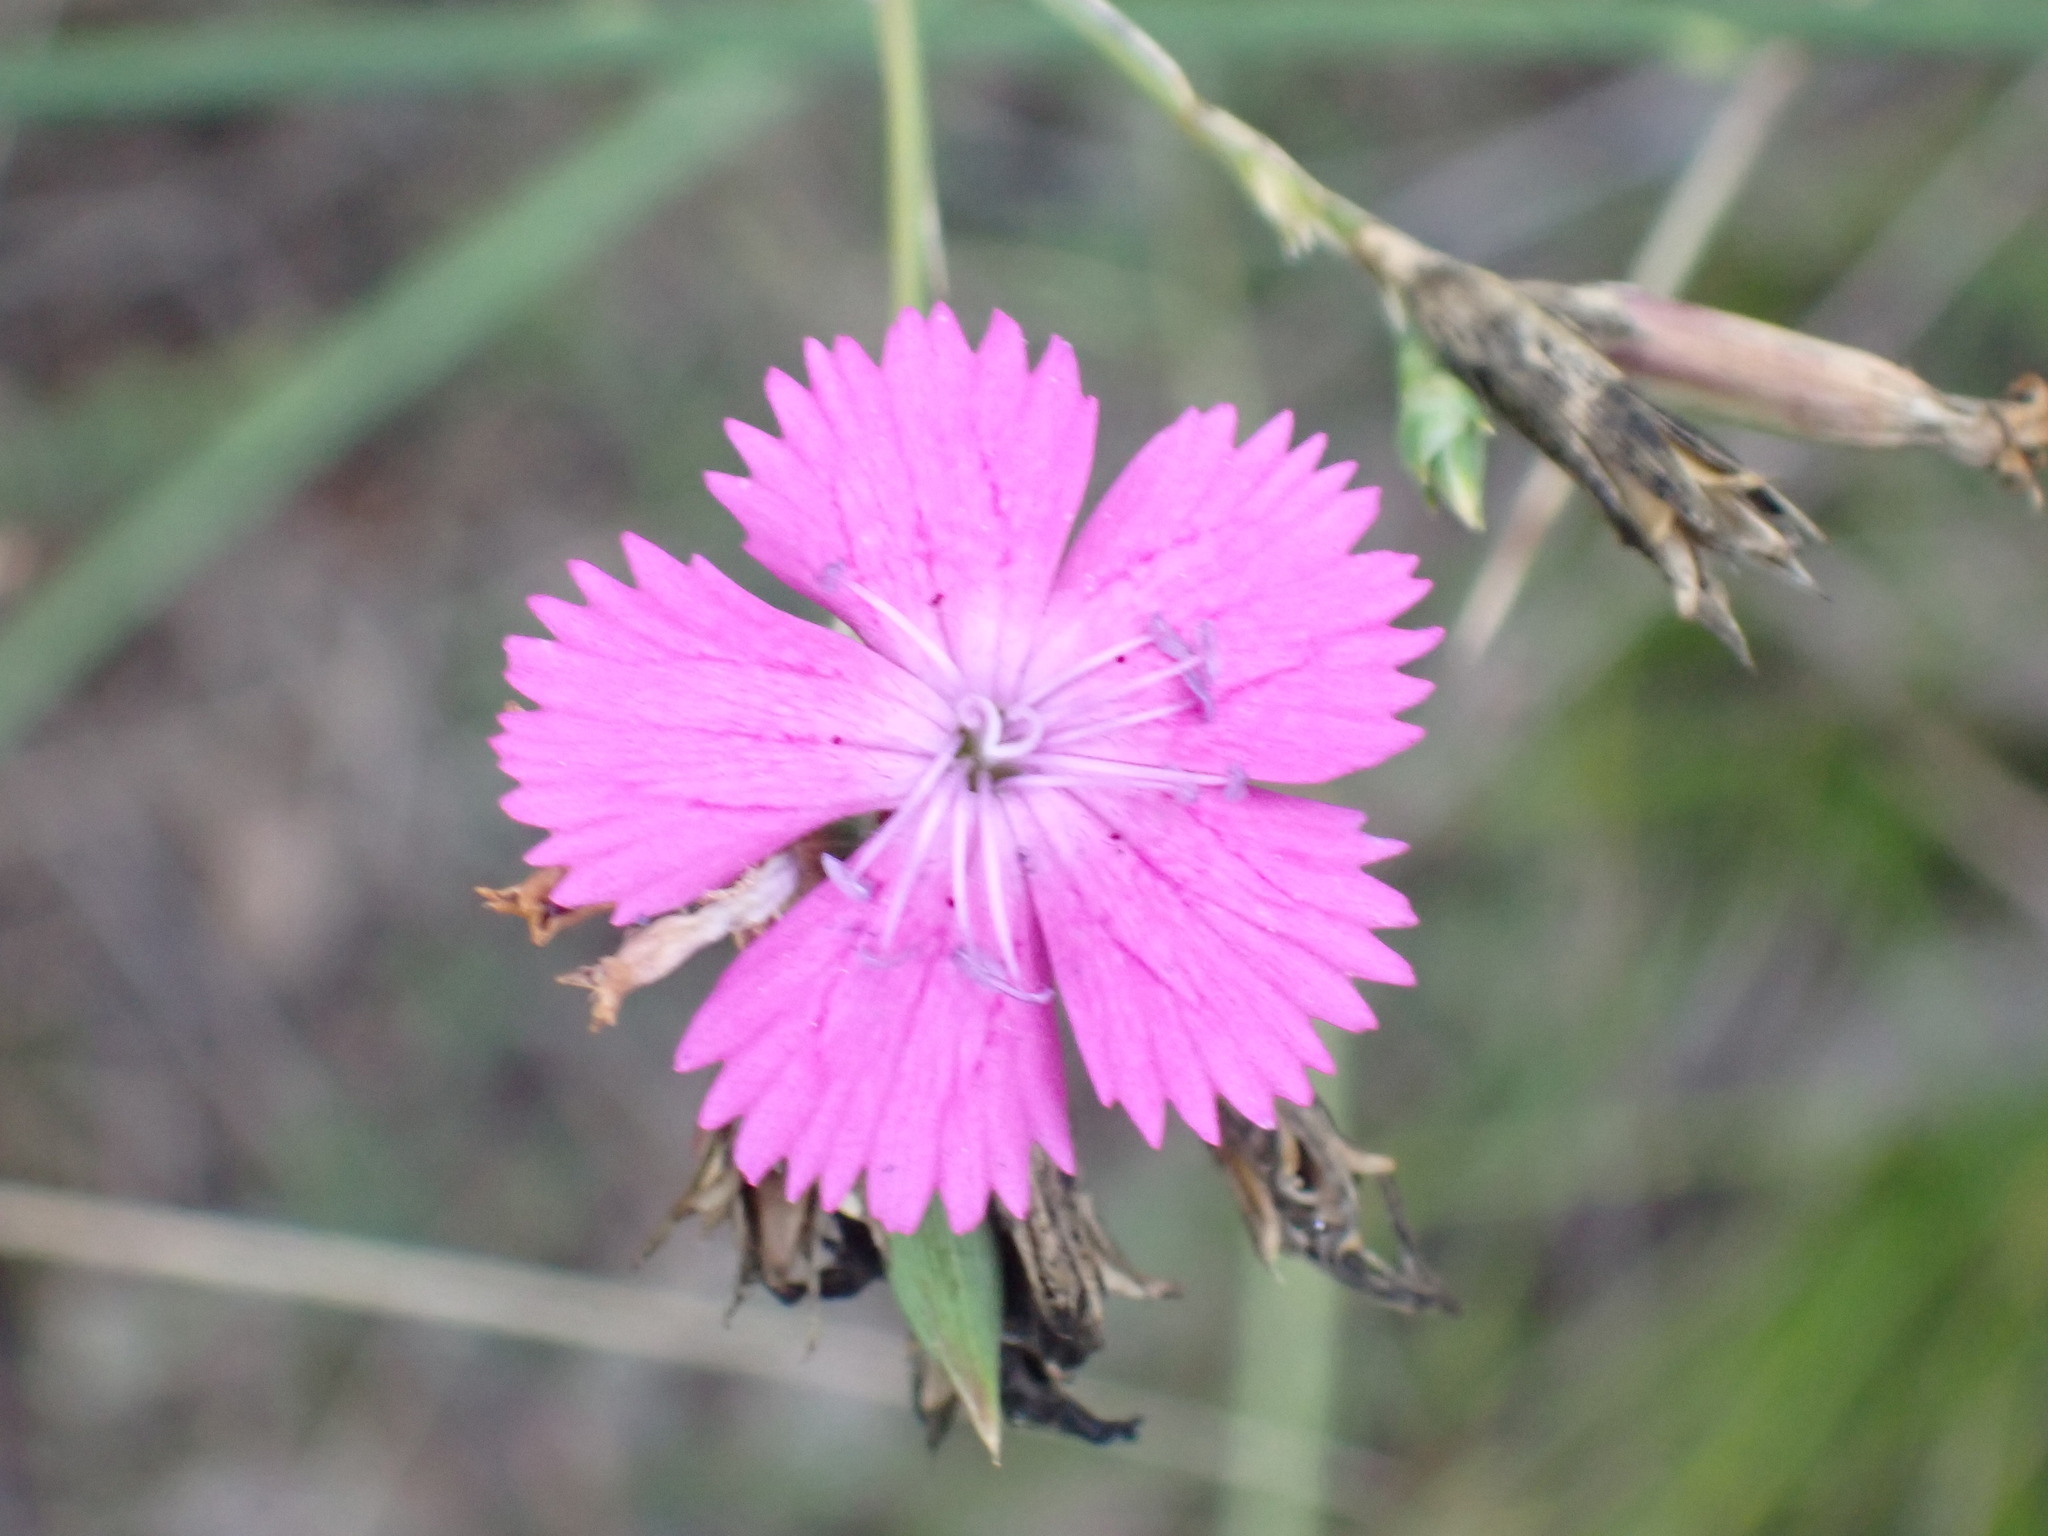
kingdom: Plantae
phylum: Tracheophyta
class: Magnoliopsida
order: Caryophyllales
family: Caryophyllaceae
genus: Dianthus
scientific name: Dianthus scaber
